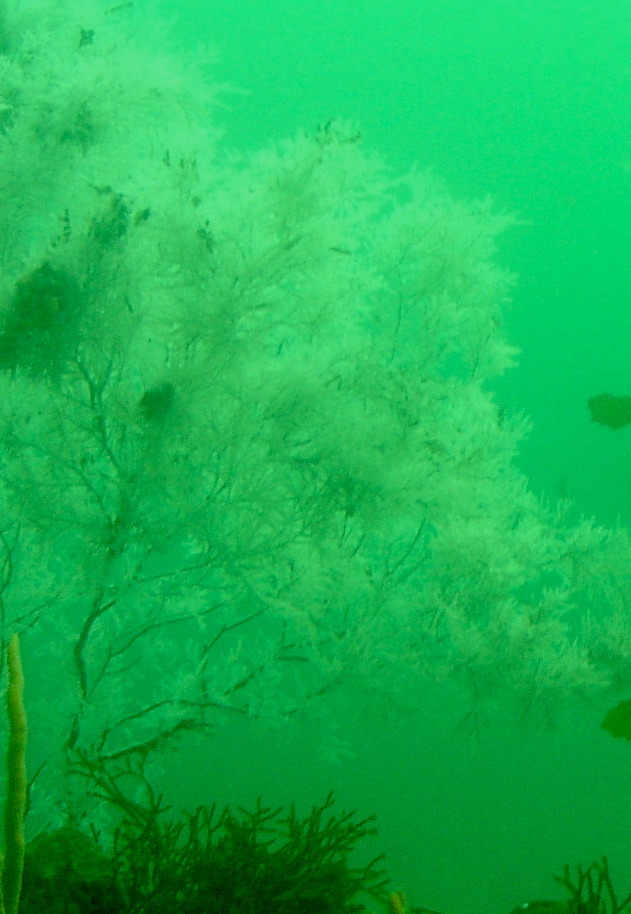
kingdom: Animalia
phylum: Cnidaria
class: Anthozoa
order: Antipatharia
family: Myriopathidae
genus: Antipathella
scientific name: Antipathella fiordensis
